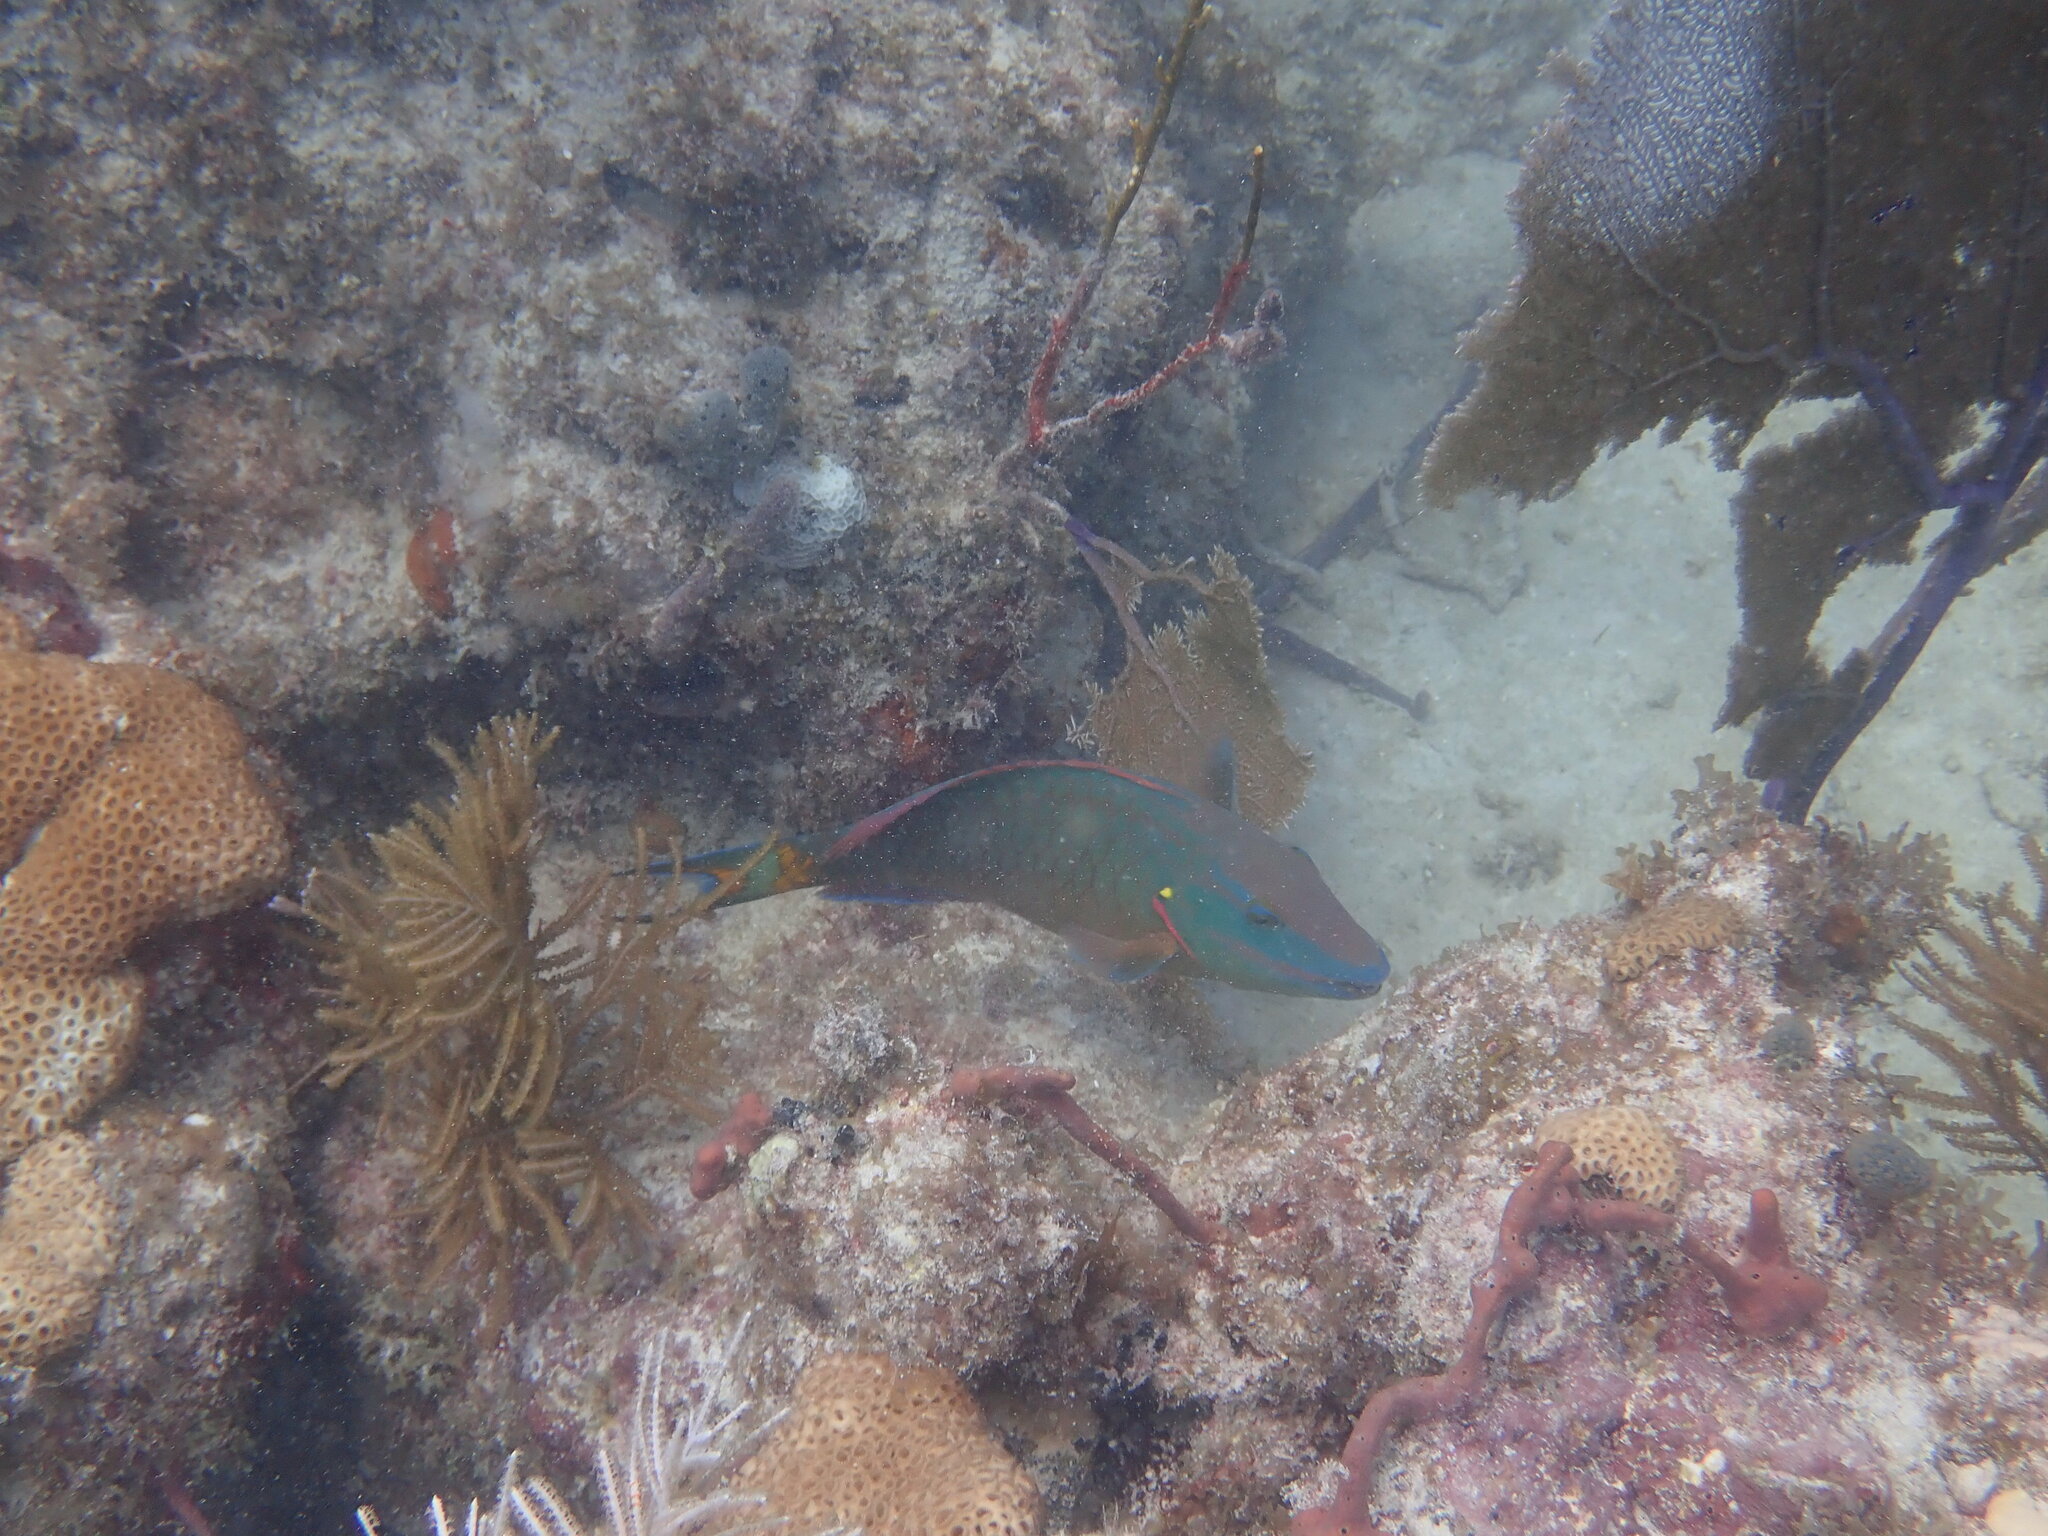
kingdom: Animalia
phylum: Chordata
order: Perciformes
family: Scaridae
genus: Sparisoma
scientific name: Sparisoma viride
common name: Stoplight parrotfish
